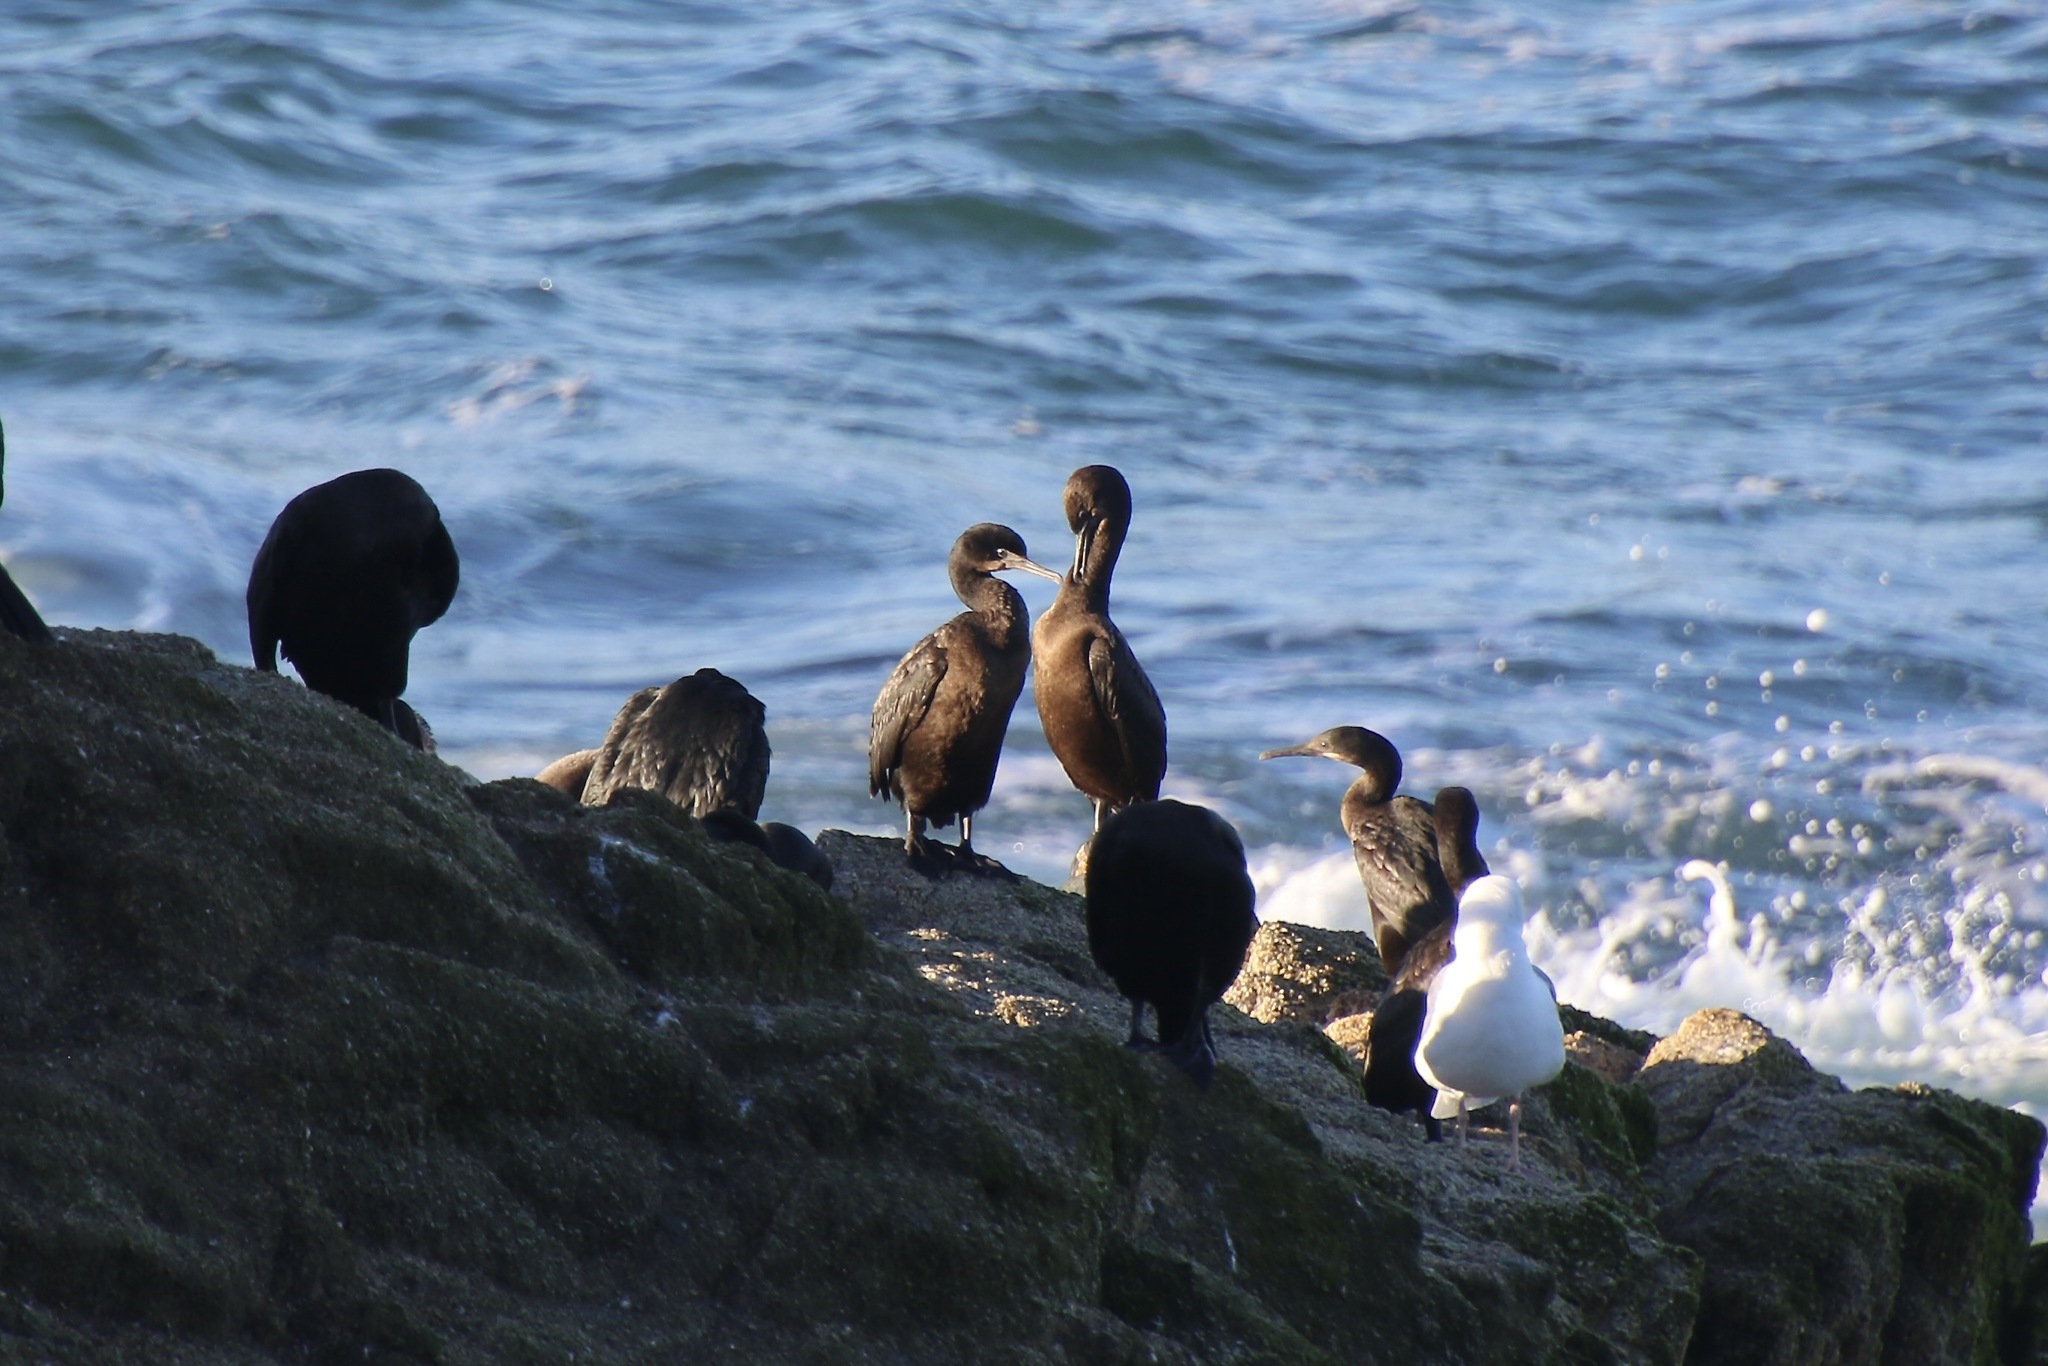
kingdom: Animalia
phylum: Chordata
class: Aves
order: Suliformes
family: Phalacrocoracidae
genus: Urile
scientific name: Urile penicillatus
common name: Brandt's cormorant
